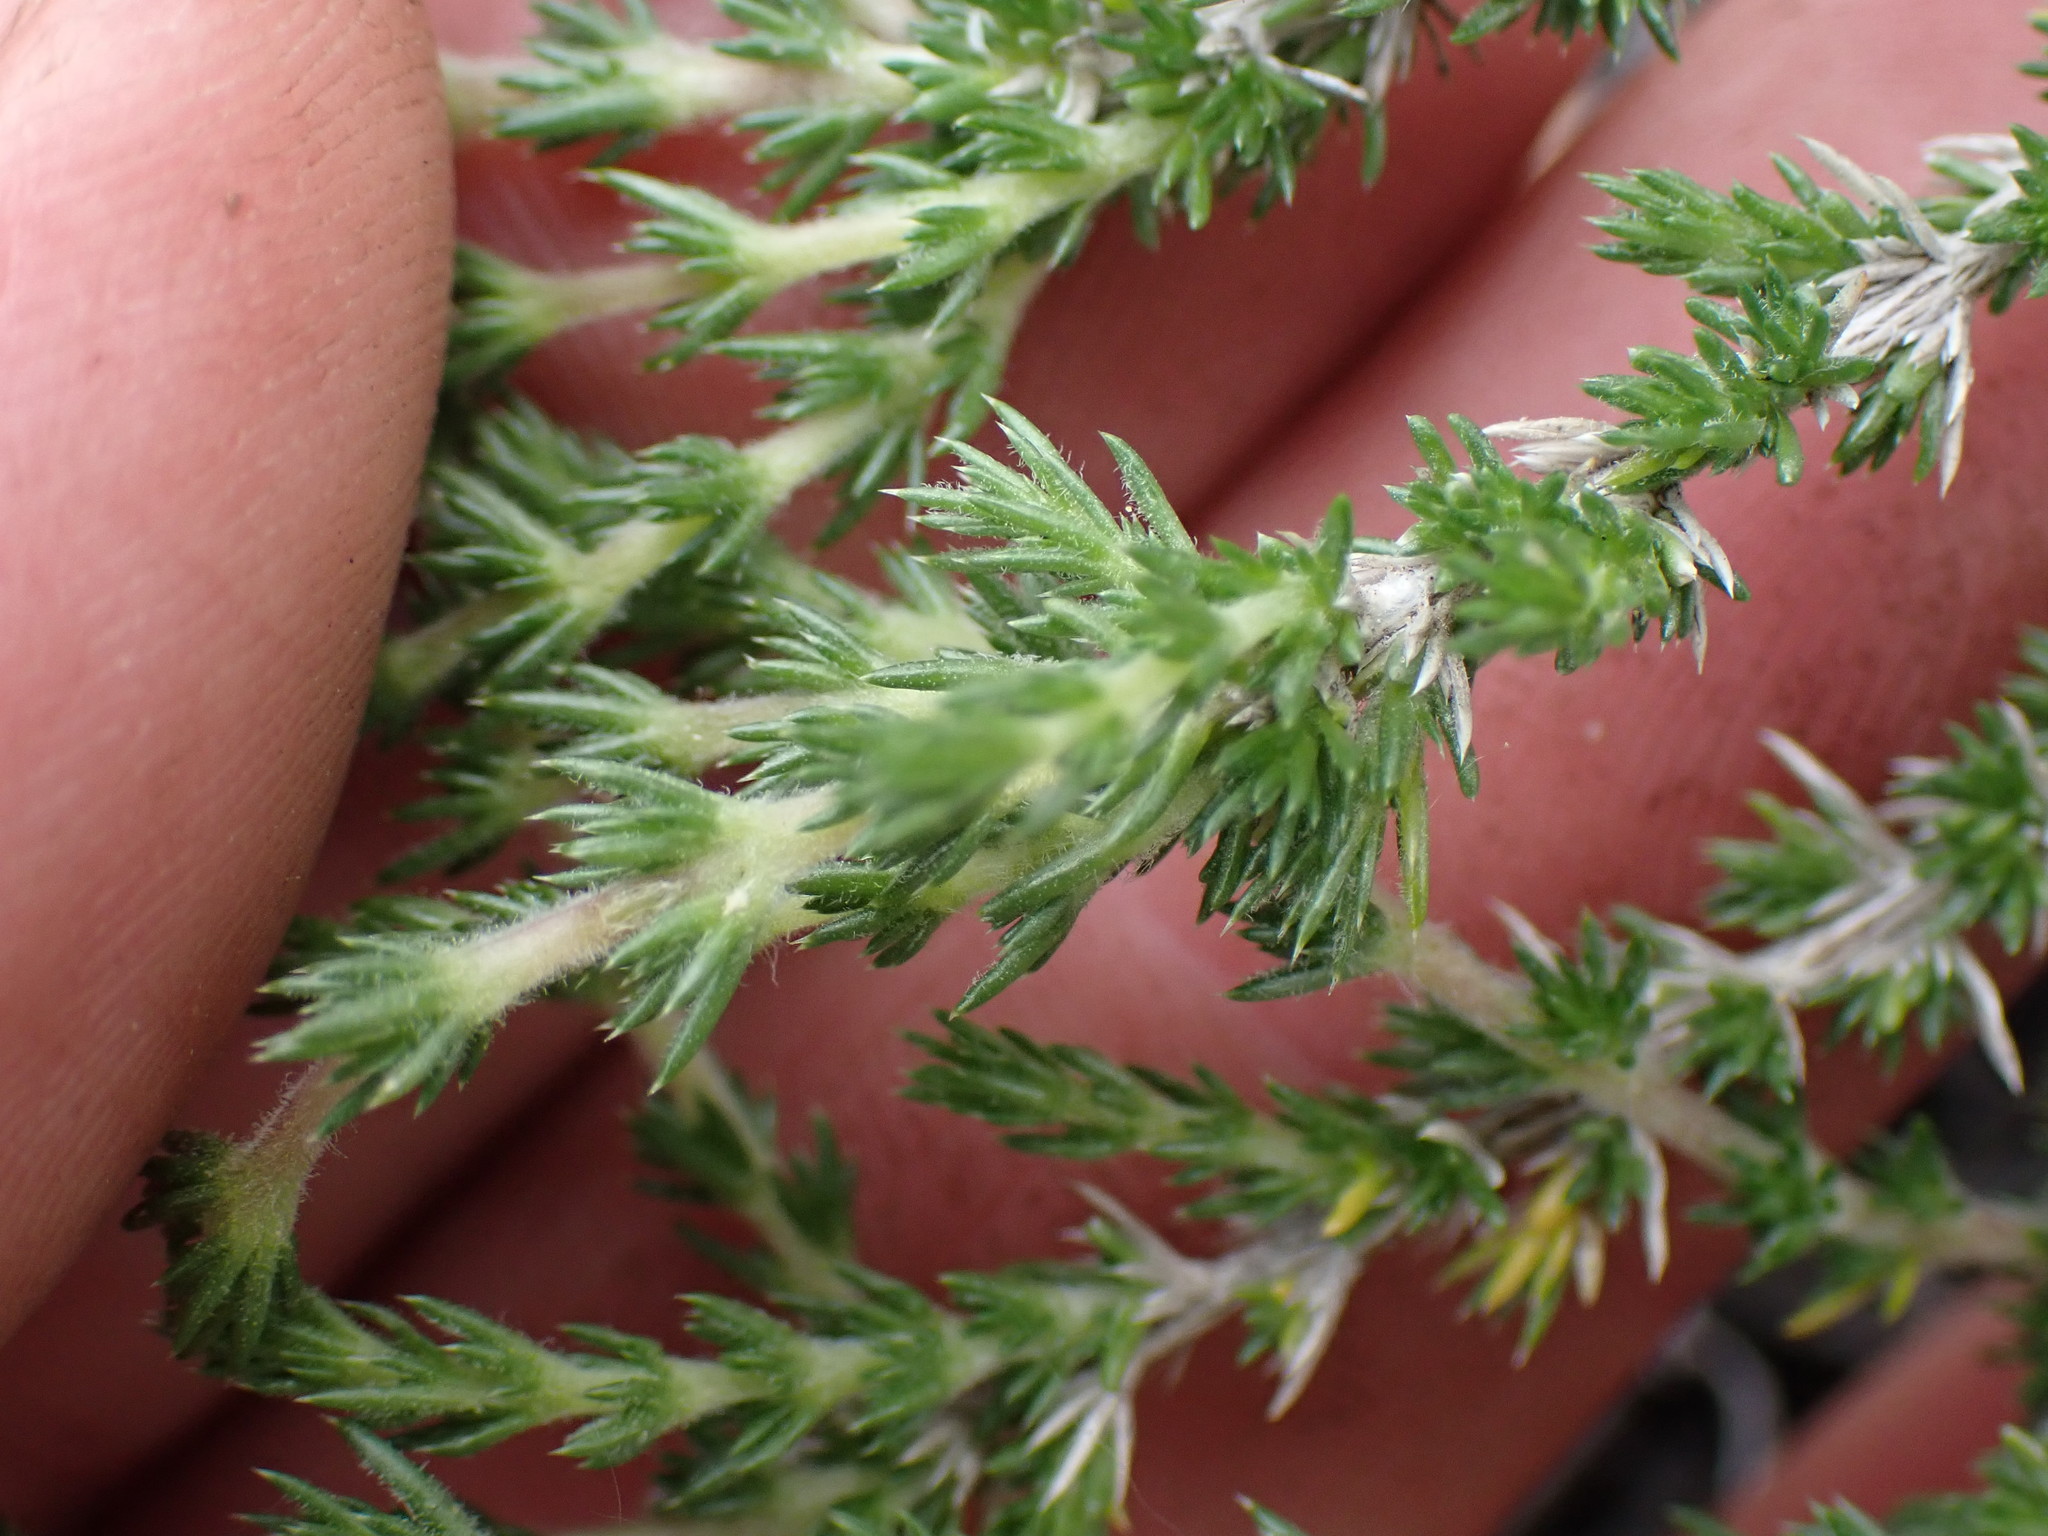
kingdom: Plantae
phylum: Tracheophyta
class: Magnoliopsida
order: Ericales
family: Polemoniaceae
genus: Linanthus
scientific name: Linanthus pungens
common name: Granite prickly phlox
